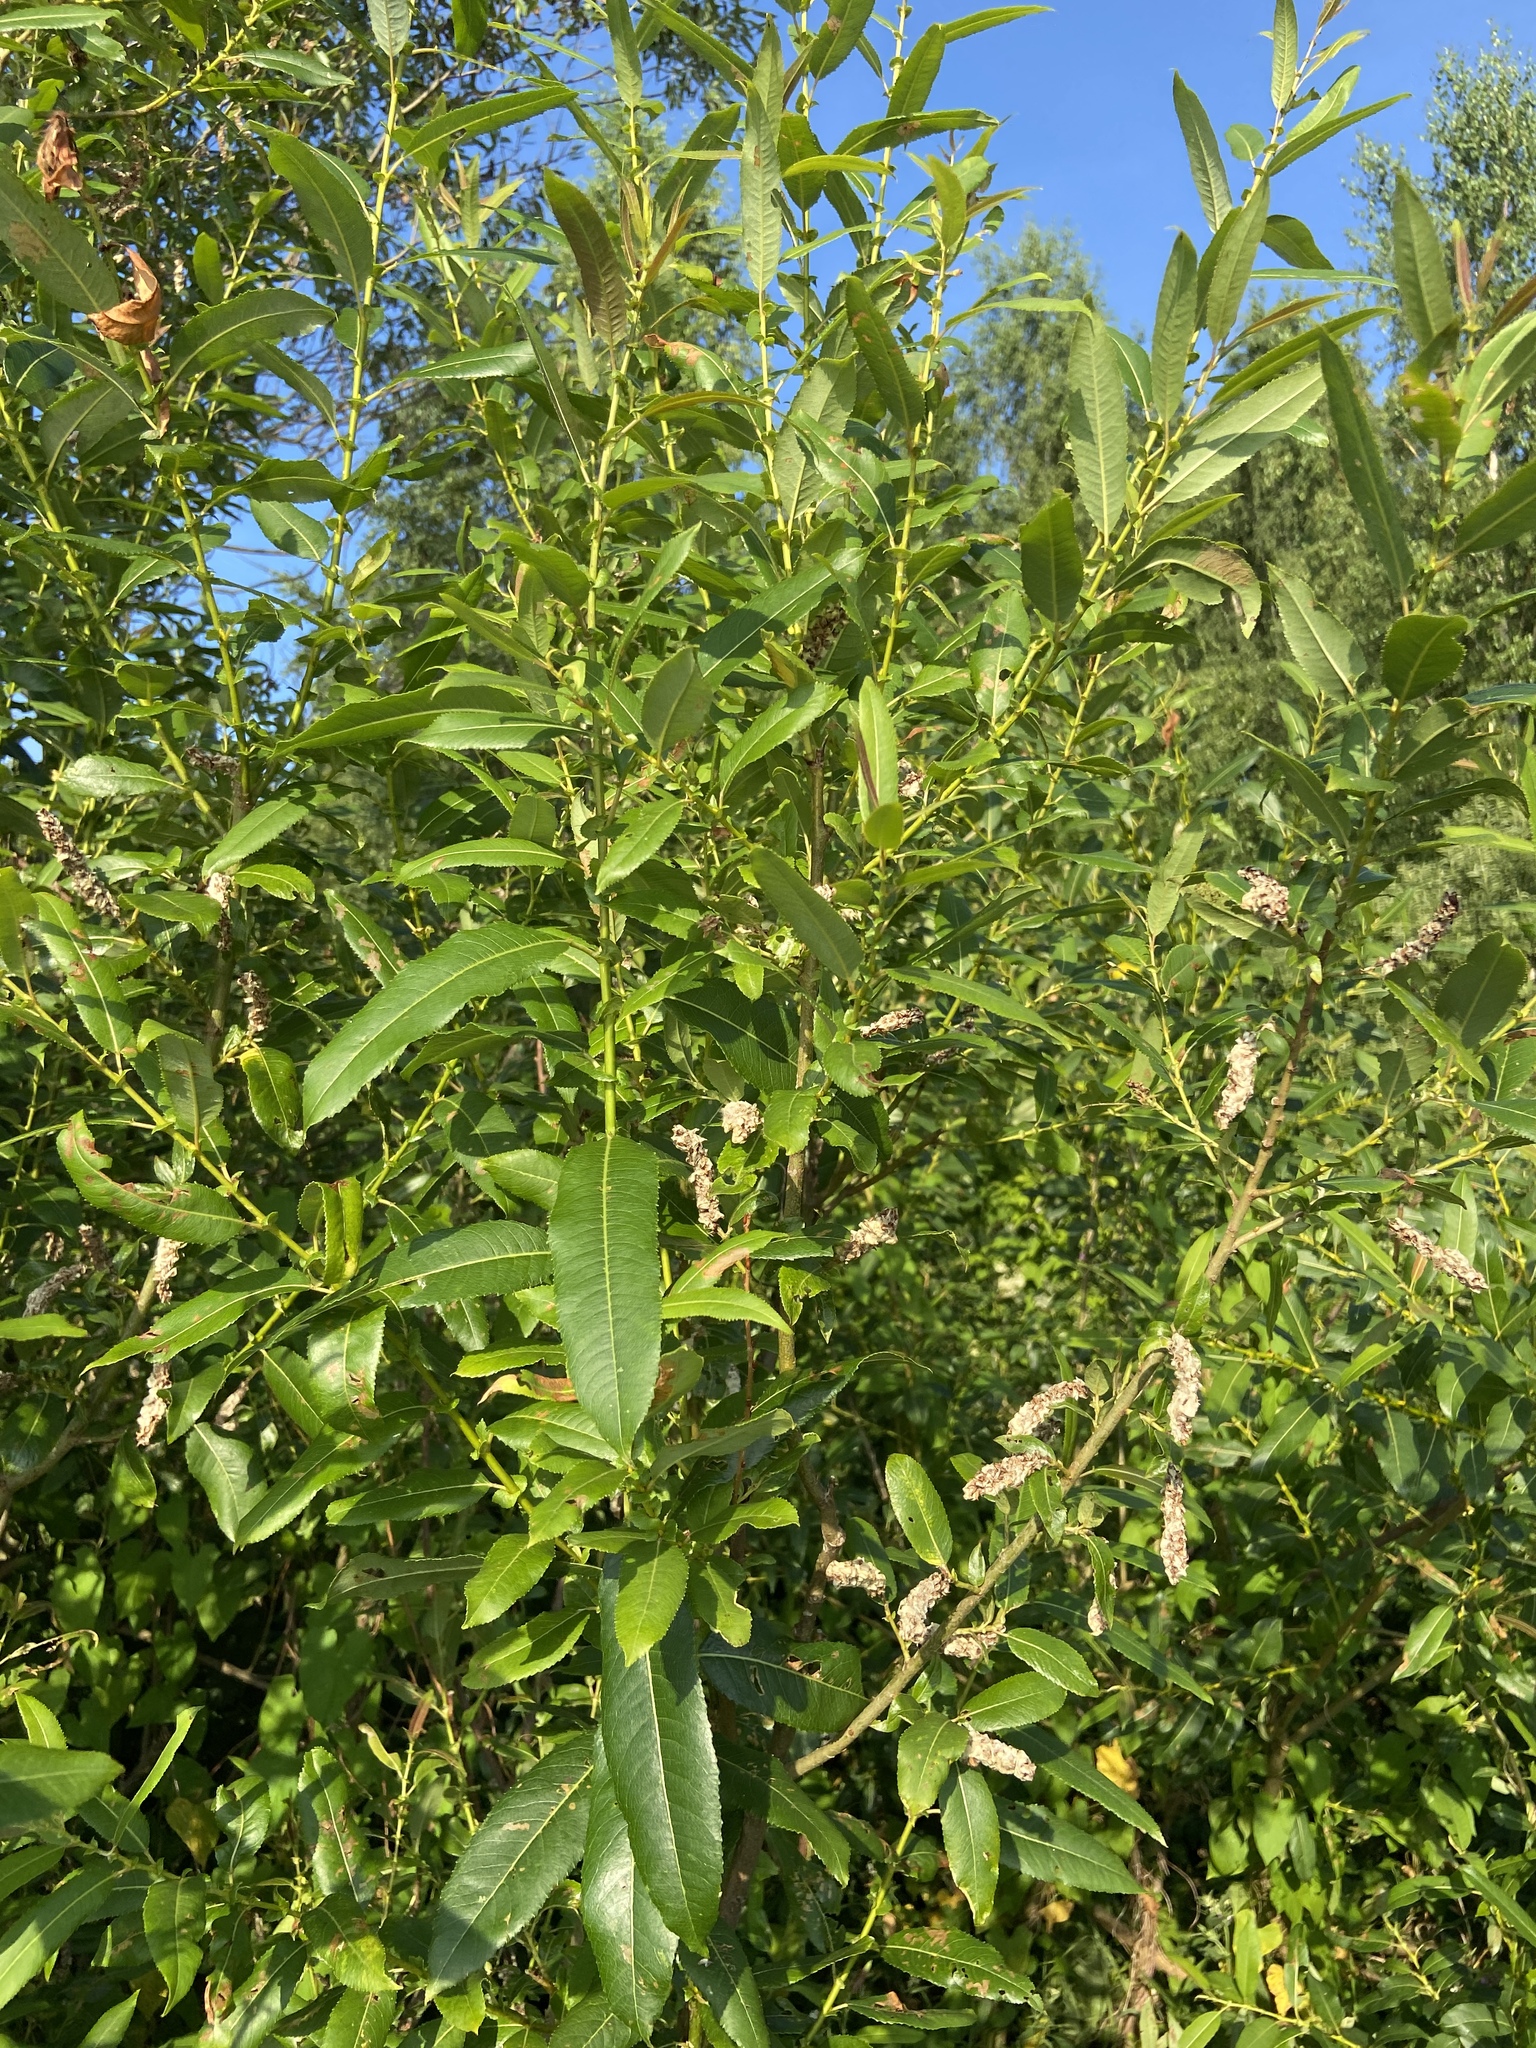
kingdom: Plantae
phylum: Tracheophyta
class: Magnoliopsida
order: Malpighiales
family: Salicaceae
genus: Salix
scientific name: Salix triandra
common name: Almond willow
